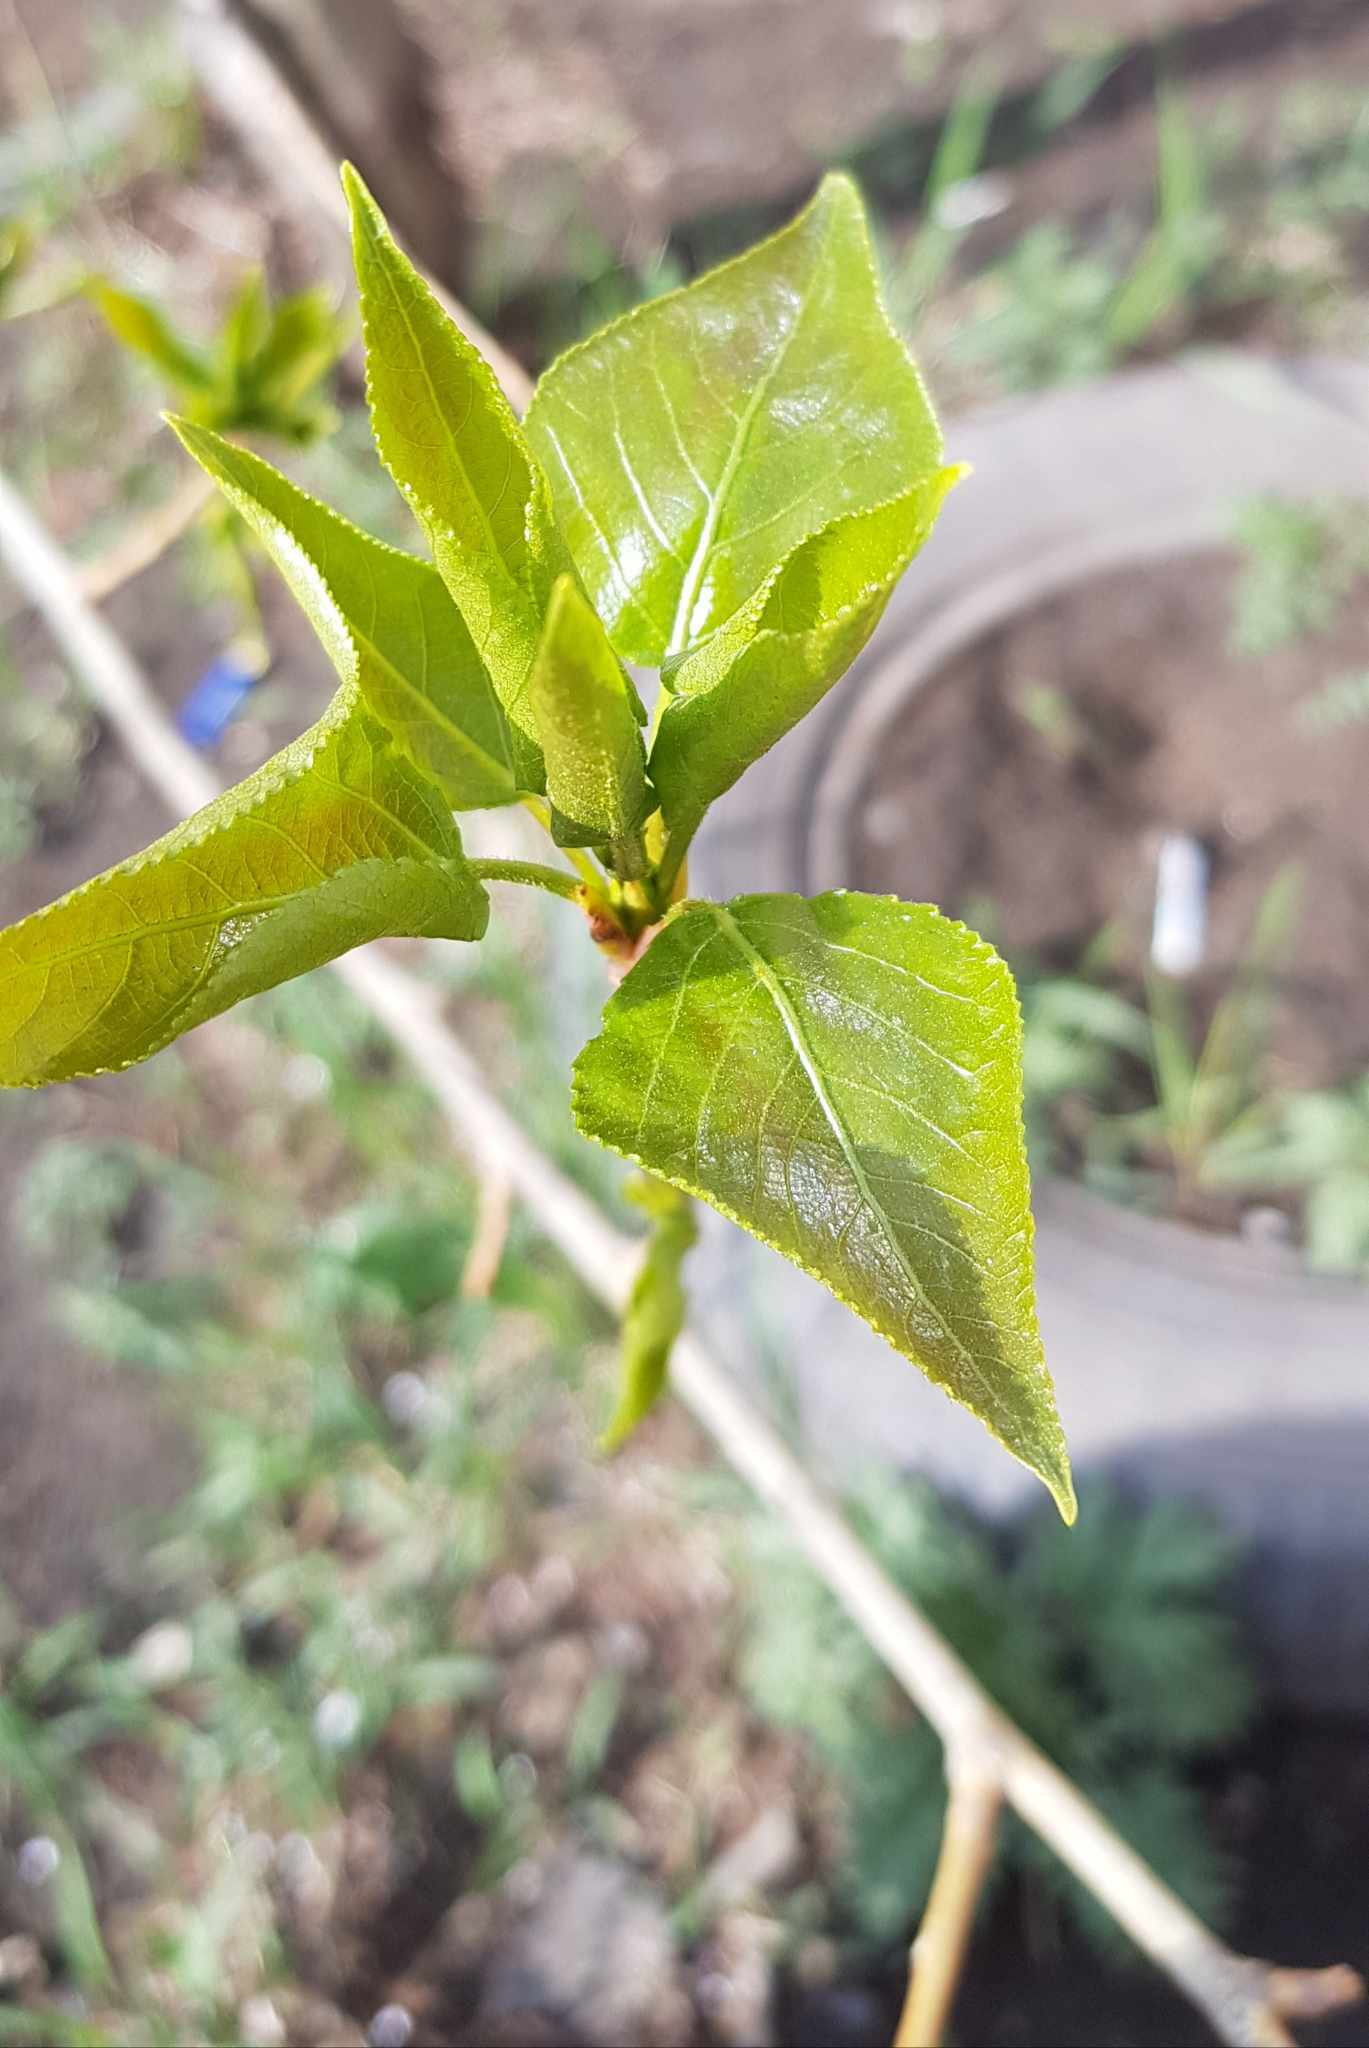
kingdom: Plantae
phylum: Tracheophyta
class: Magnoliopsida
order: Malpighiales
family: Salicaceae
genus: Populus
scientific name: Populus laurifolia
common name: Laurel-leaf poplar
